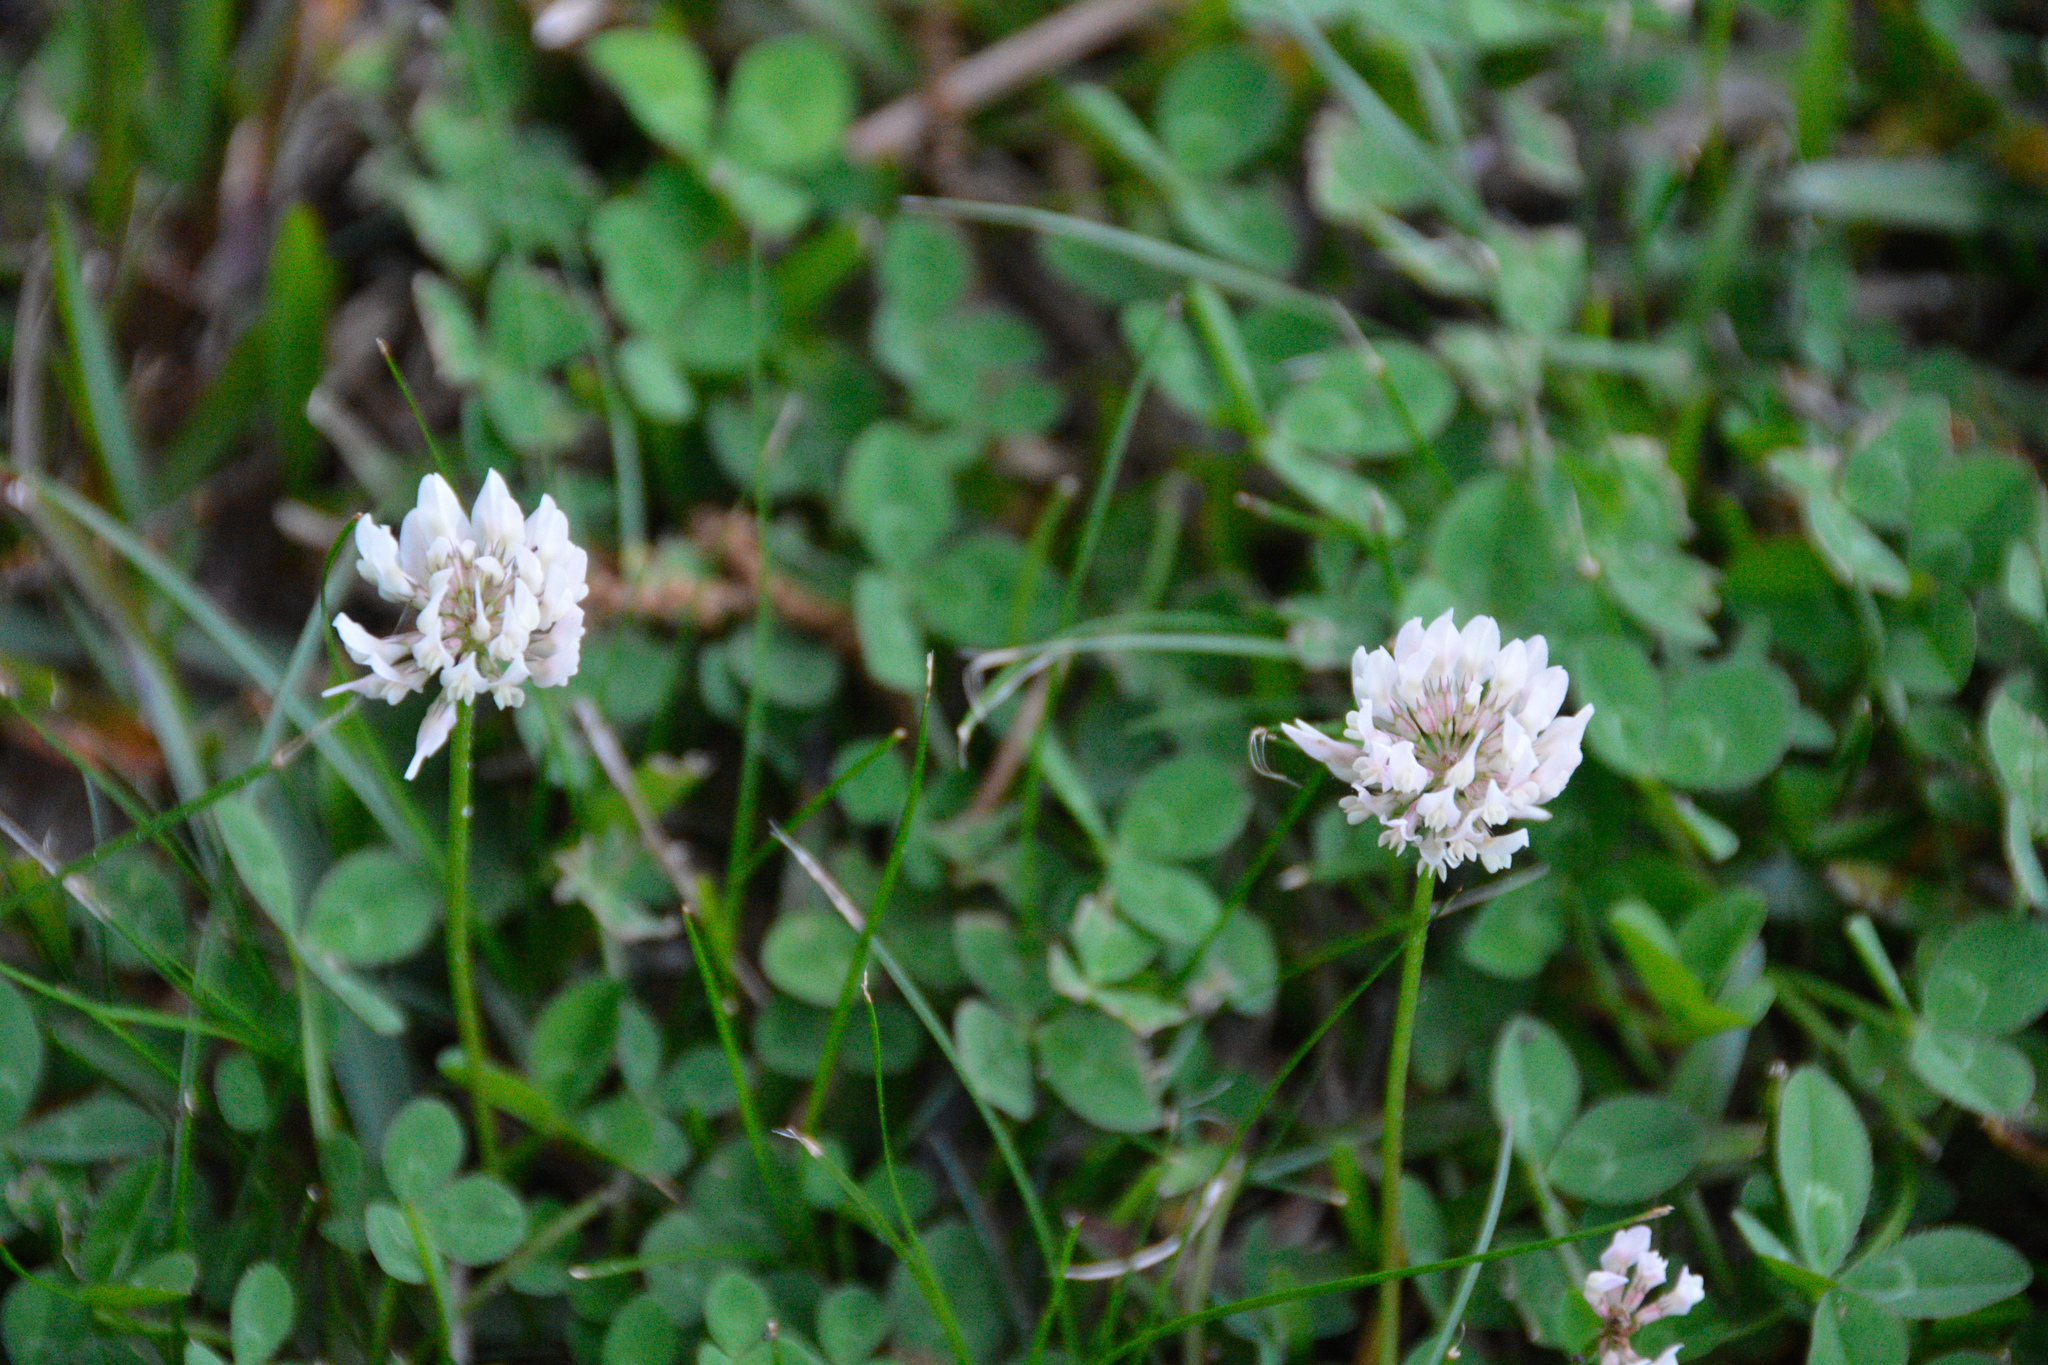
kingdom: Plantae
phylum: Tracheophyta
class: Magnoliopsida
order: Fabales
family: Fabaceae
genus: Trifolium
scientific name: Trifolium repens
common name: White clover
